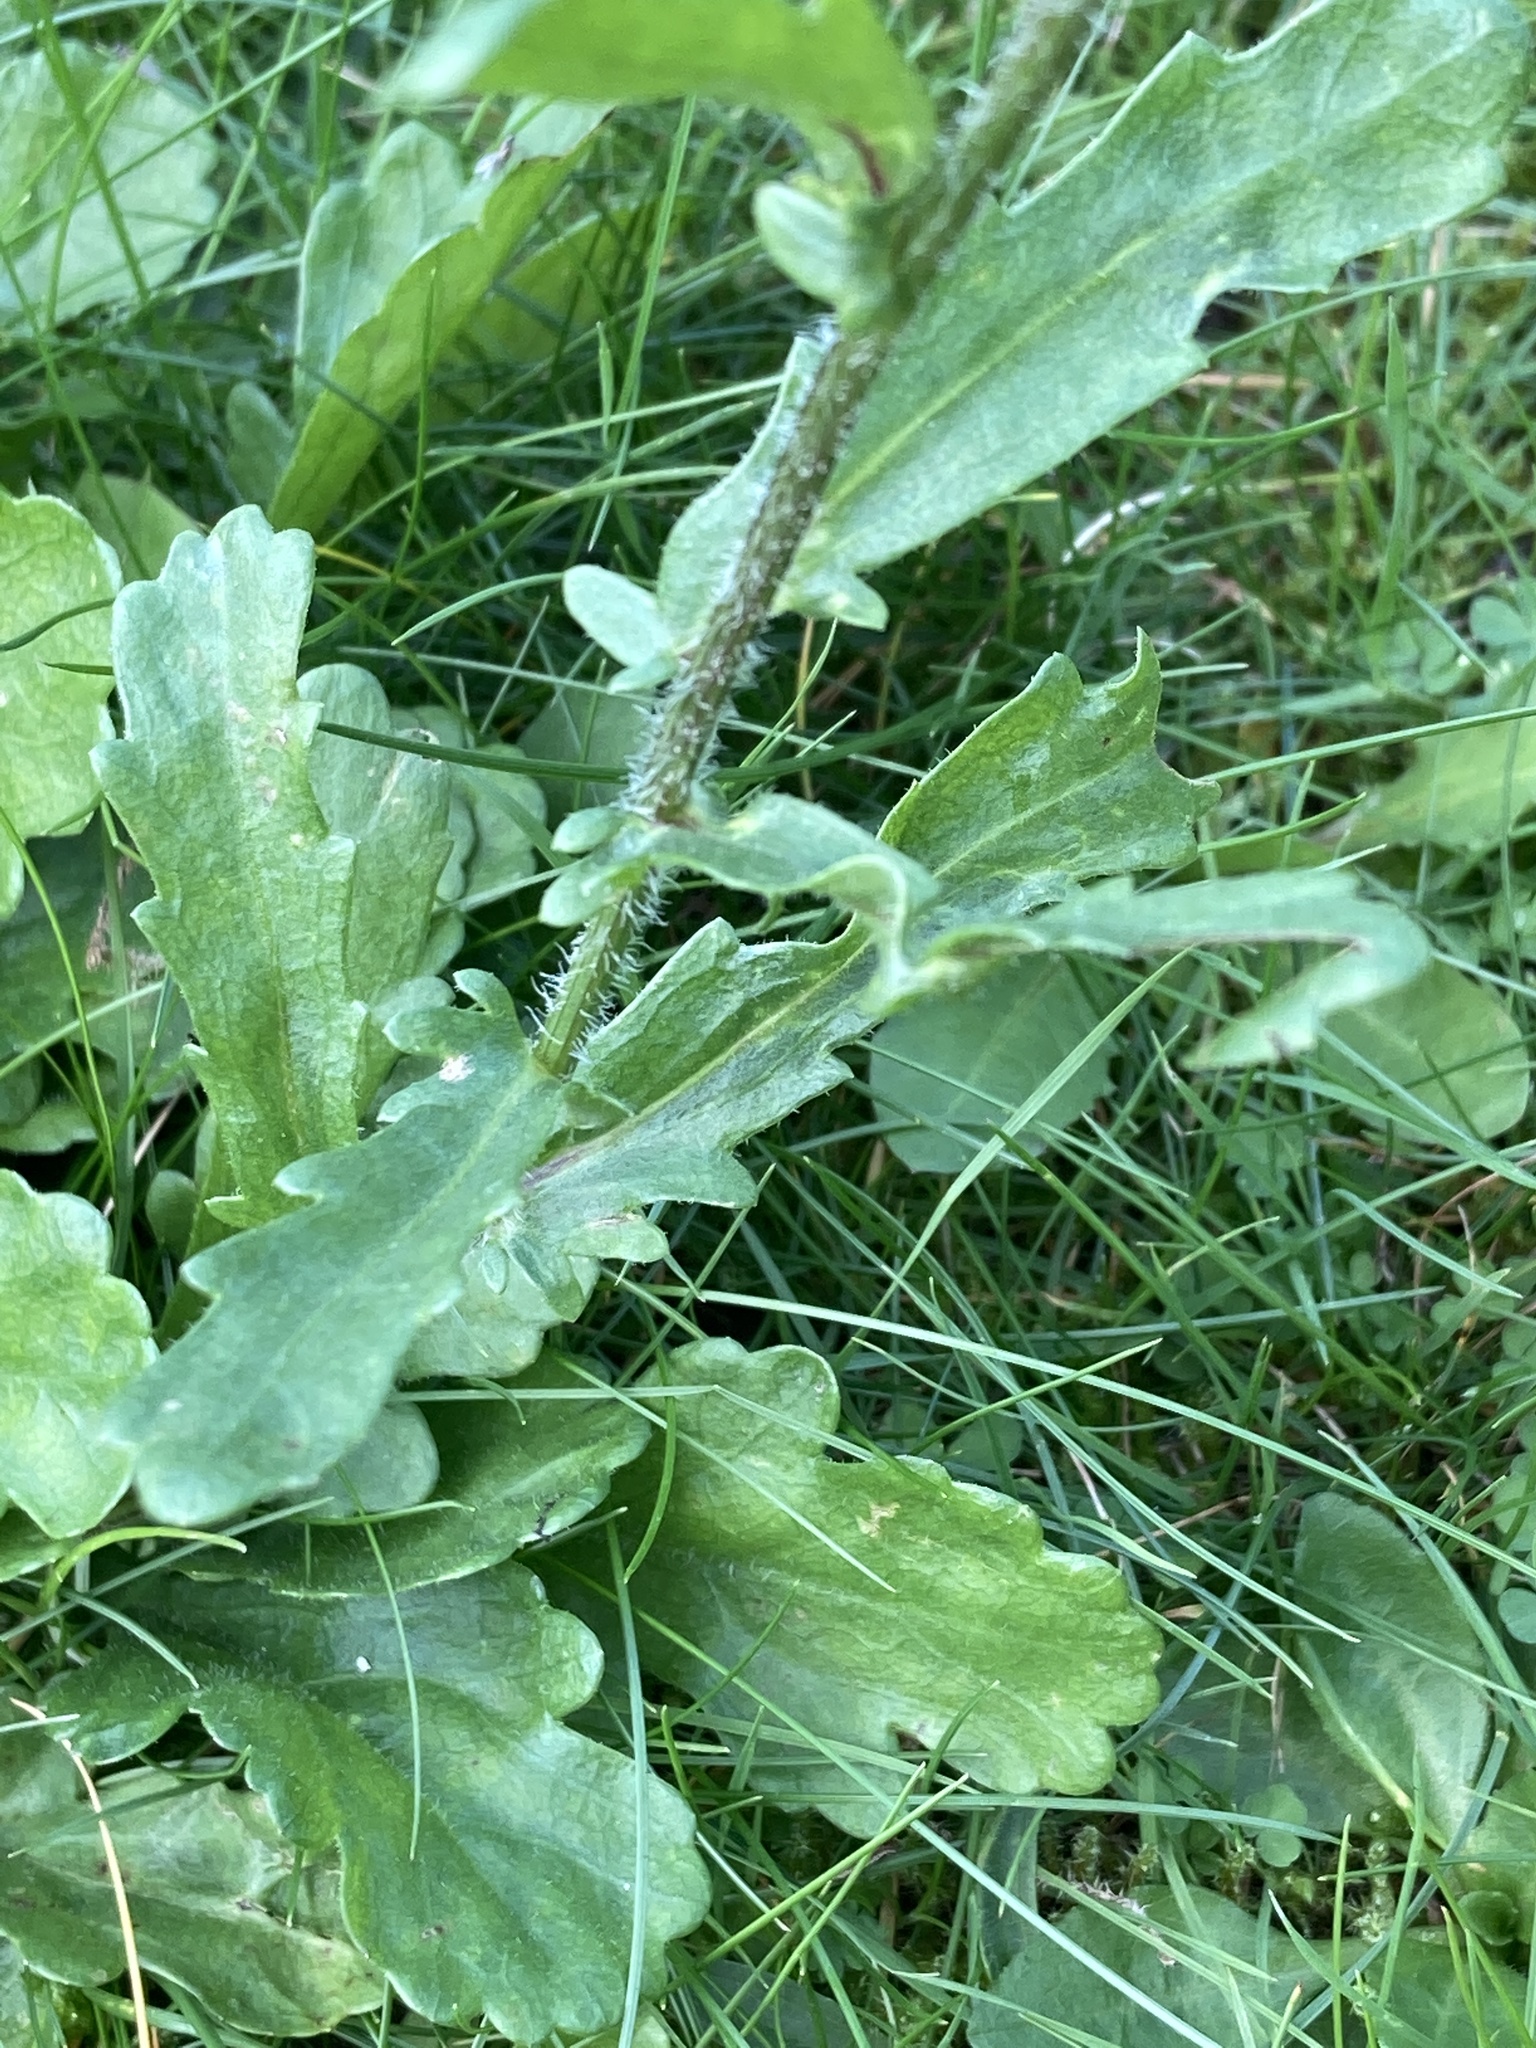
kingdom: Plantae
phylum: Tracheophyta
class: Magnoliopsida
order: Asterales
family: Asteraceae
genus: Leucanthemum
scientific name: Leucanthemum vulgare
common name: Oxeye daisy
